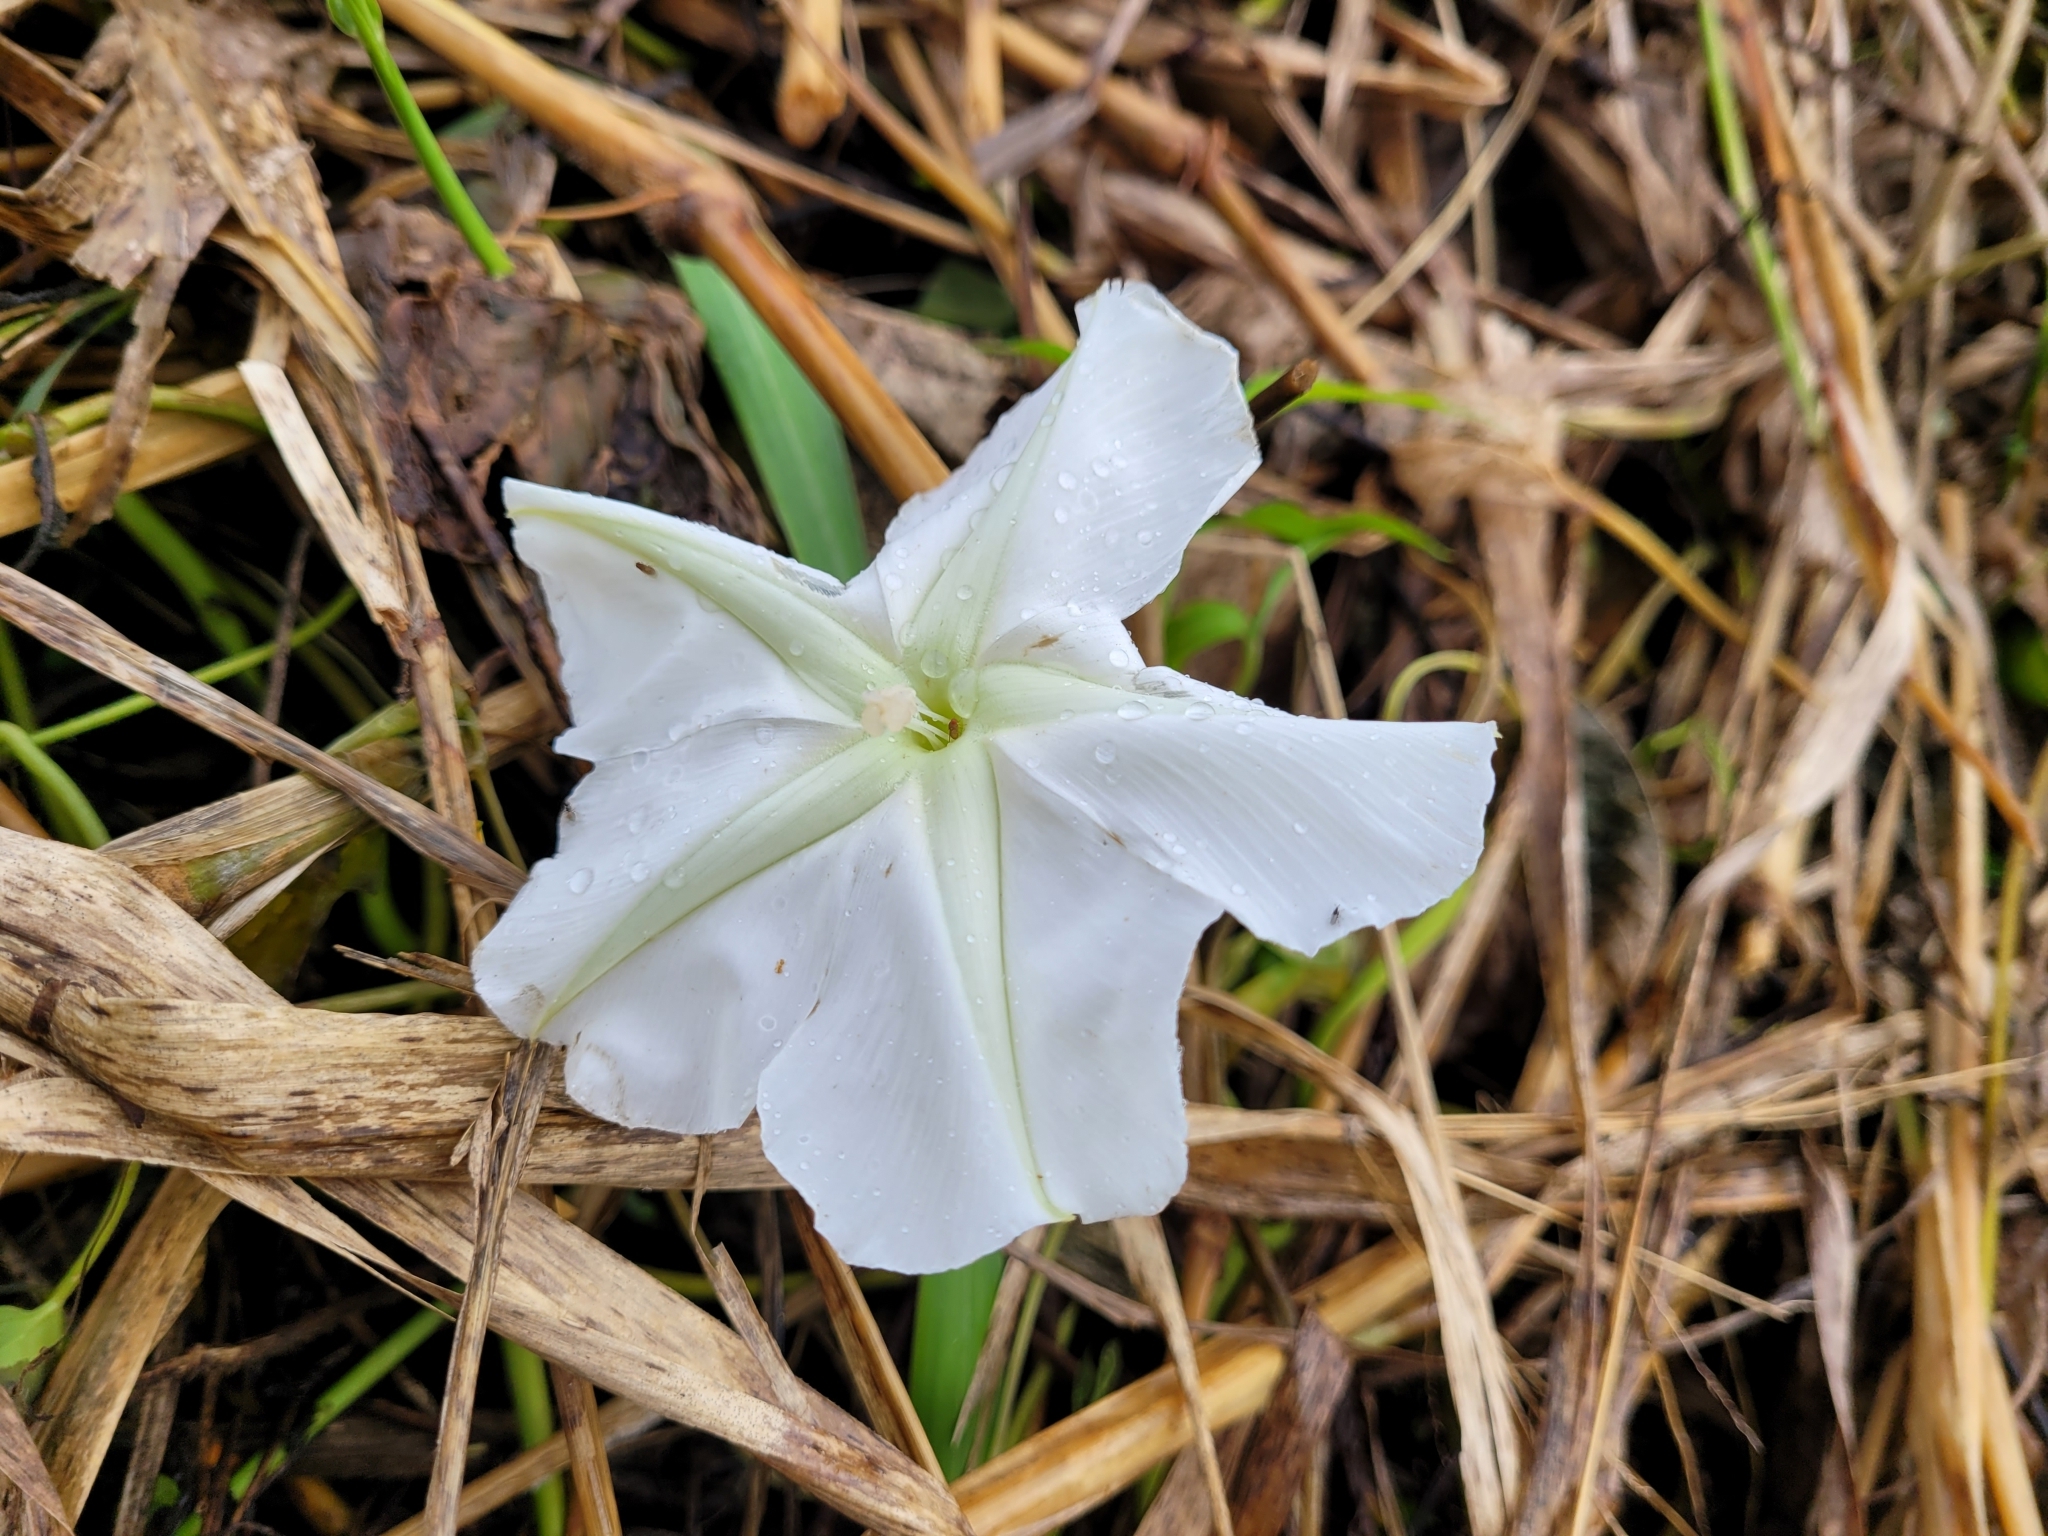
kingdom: Plantae
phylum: Tracheophyta
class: Magnoliopsida
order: Solanales
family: Convolvulaceae
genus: Ipomoea
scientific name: Ipomoea alba
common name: Moonflower
